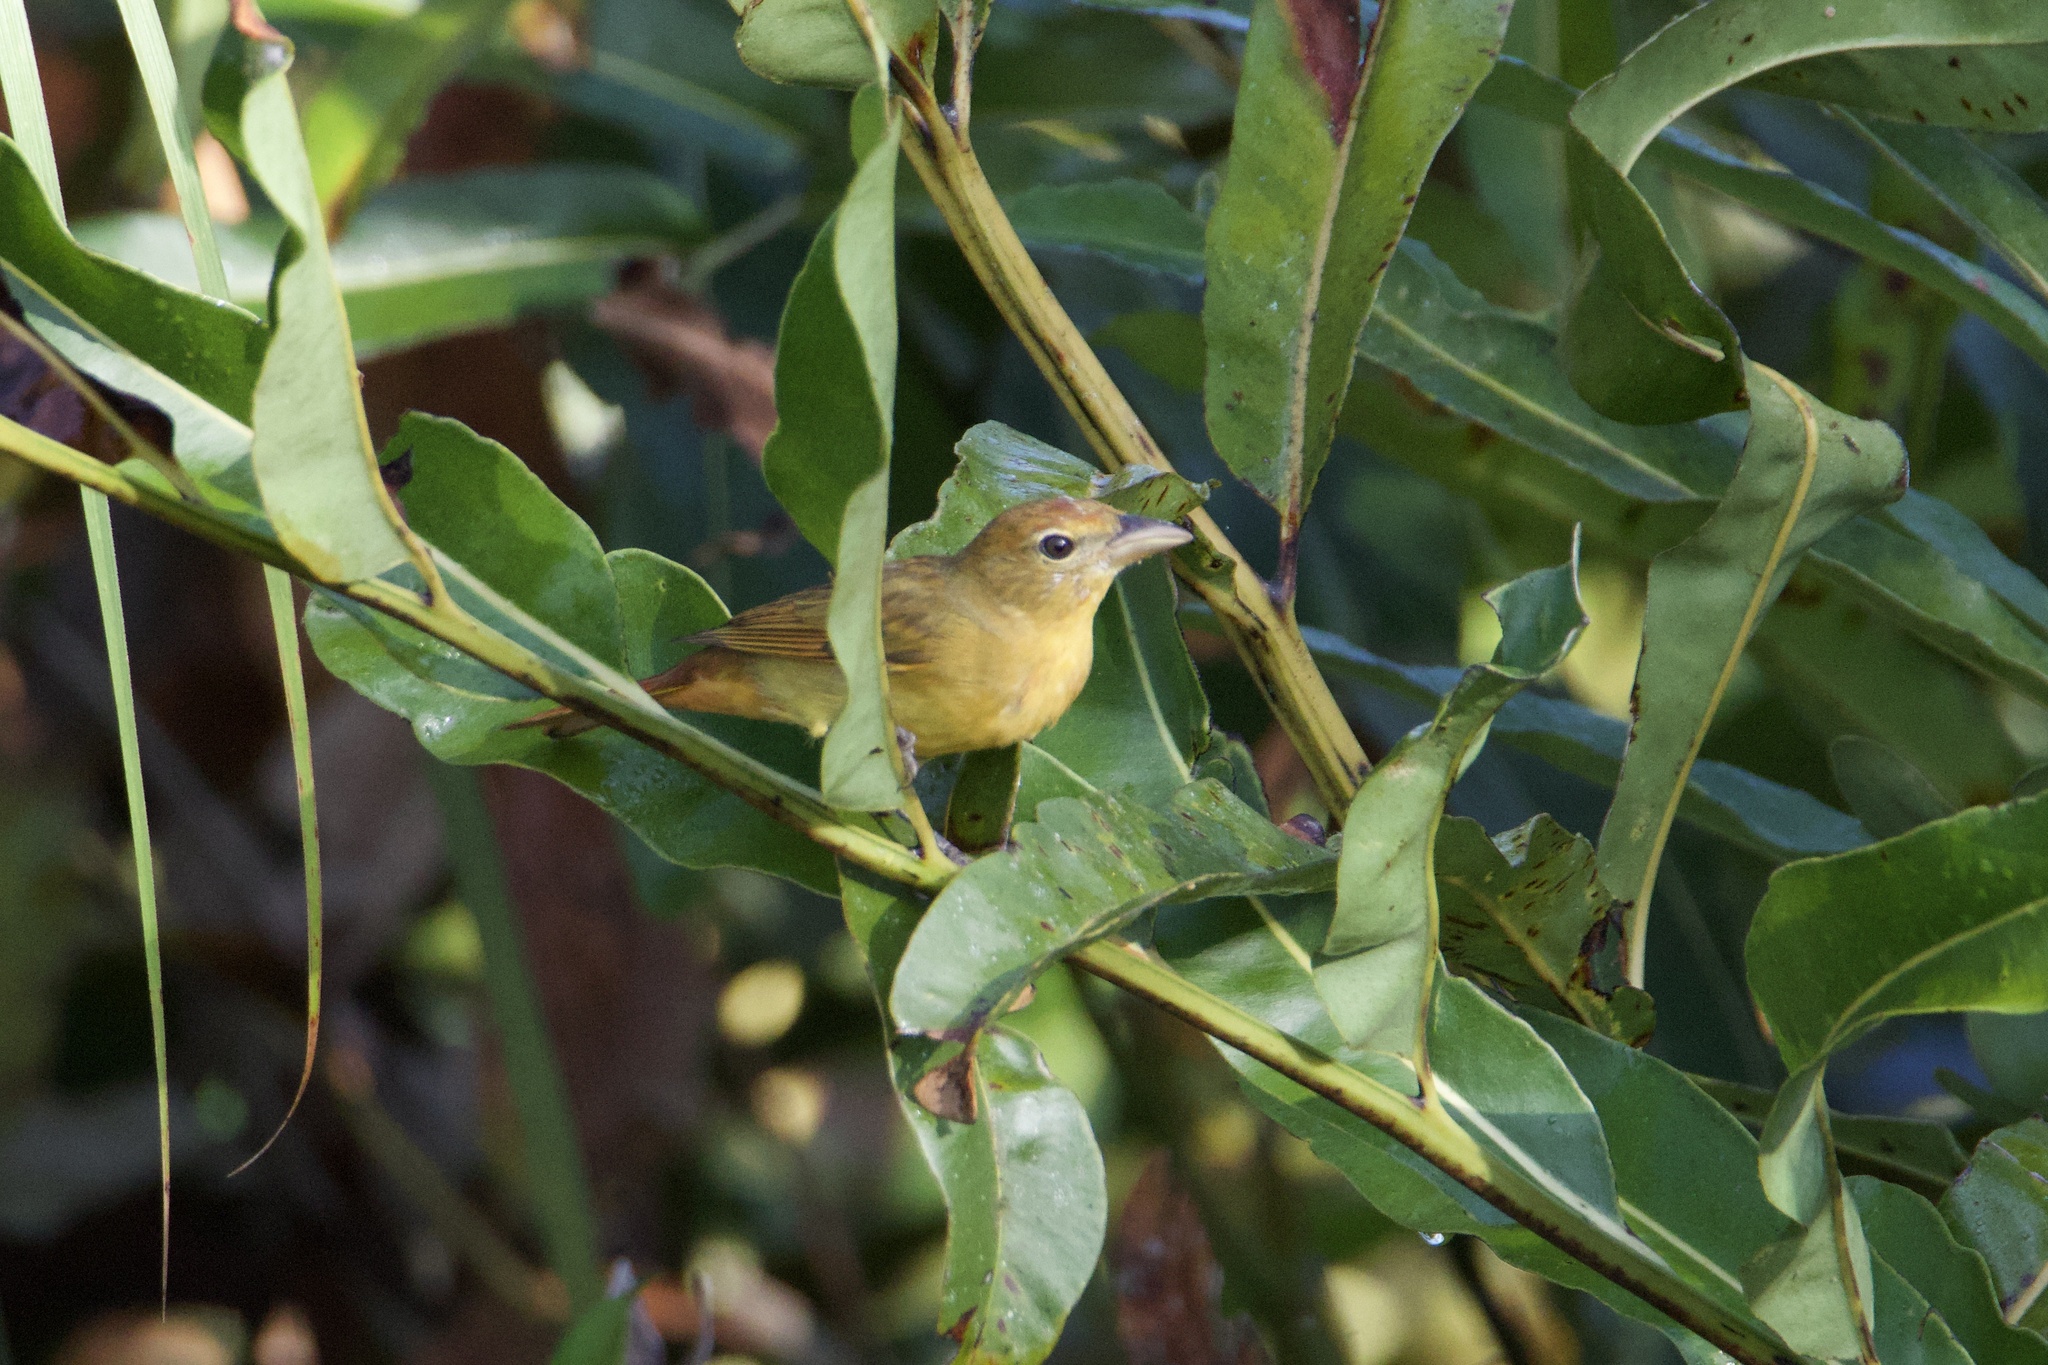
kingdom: Animalia
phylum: Chordata
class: Aves
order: Passeriformes
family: Cardinalidae
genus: Piranga
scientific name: Piranga rubra
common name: Summer tanager
